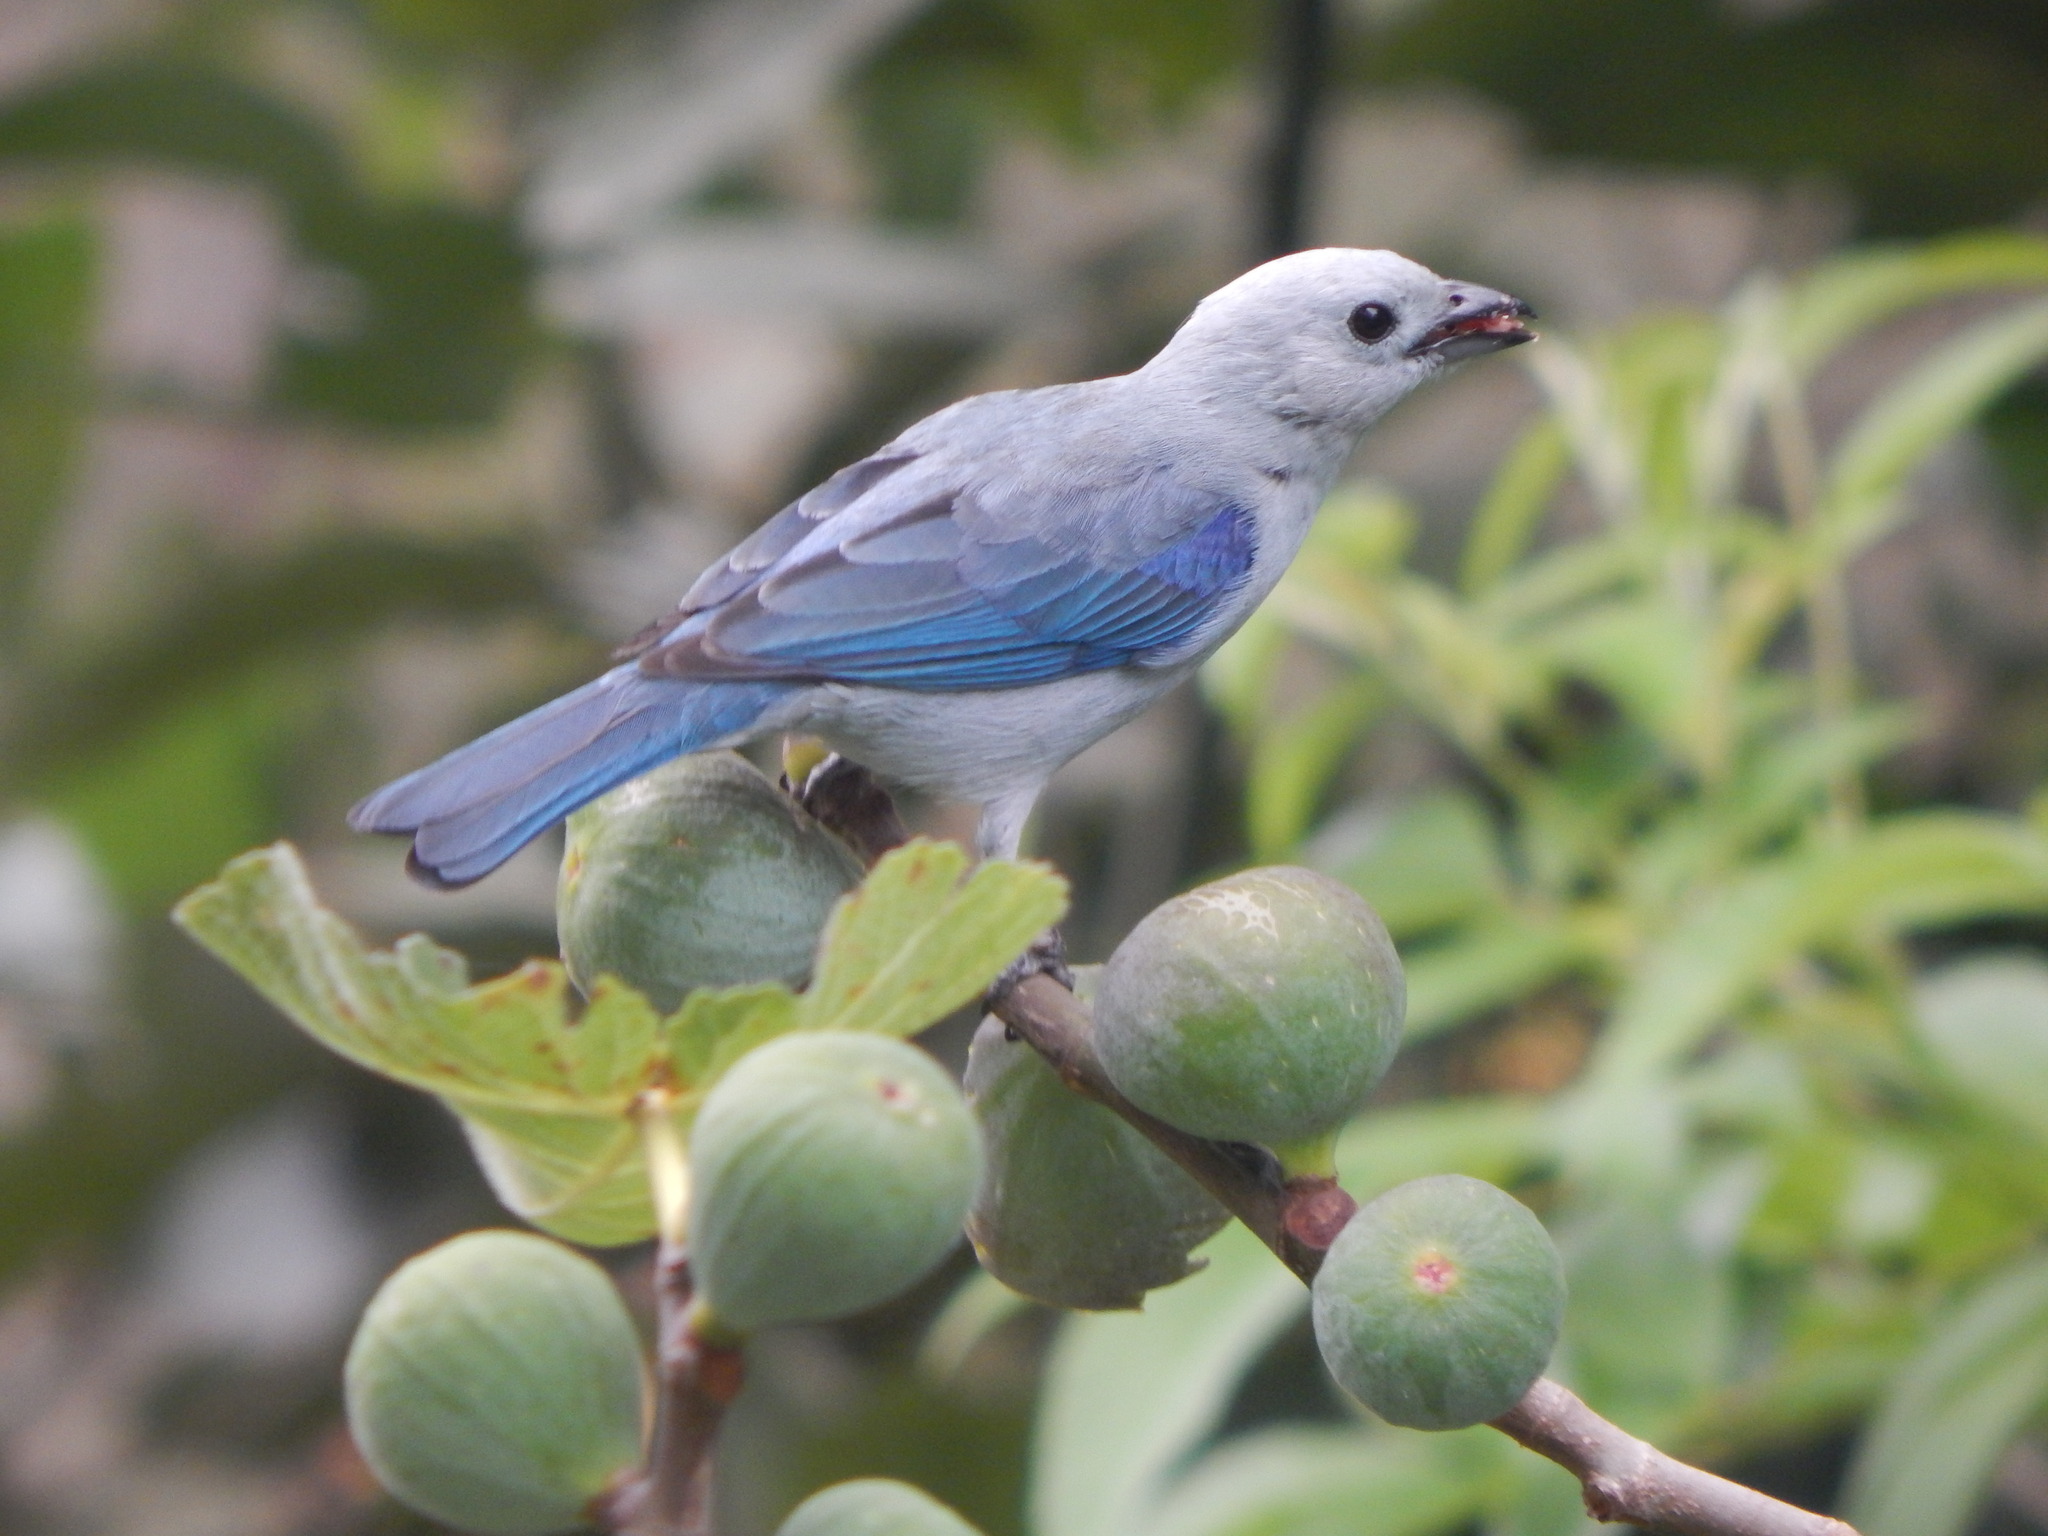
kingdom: Animalia
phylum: Chordata
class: Aves
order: Passeriformes
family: Thraupidae
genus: Thraupis
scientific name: Thraupis episcopus
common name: Blue-grey tanager
